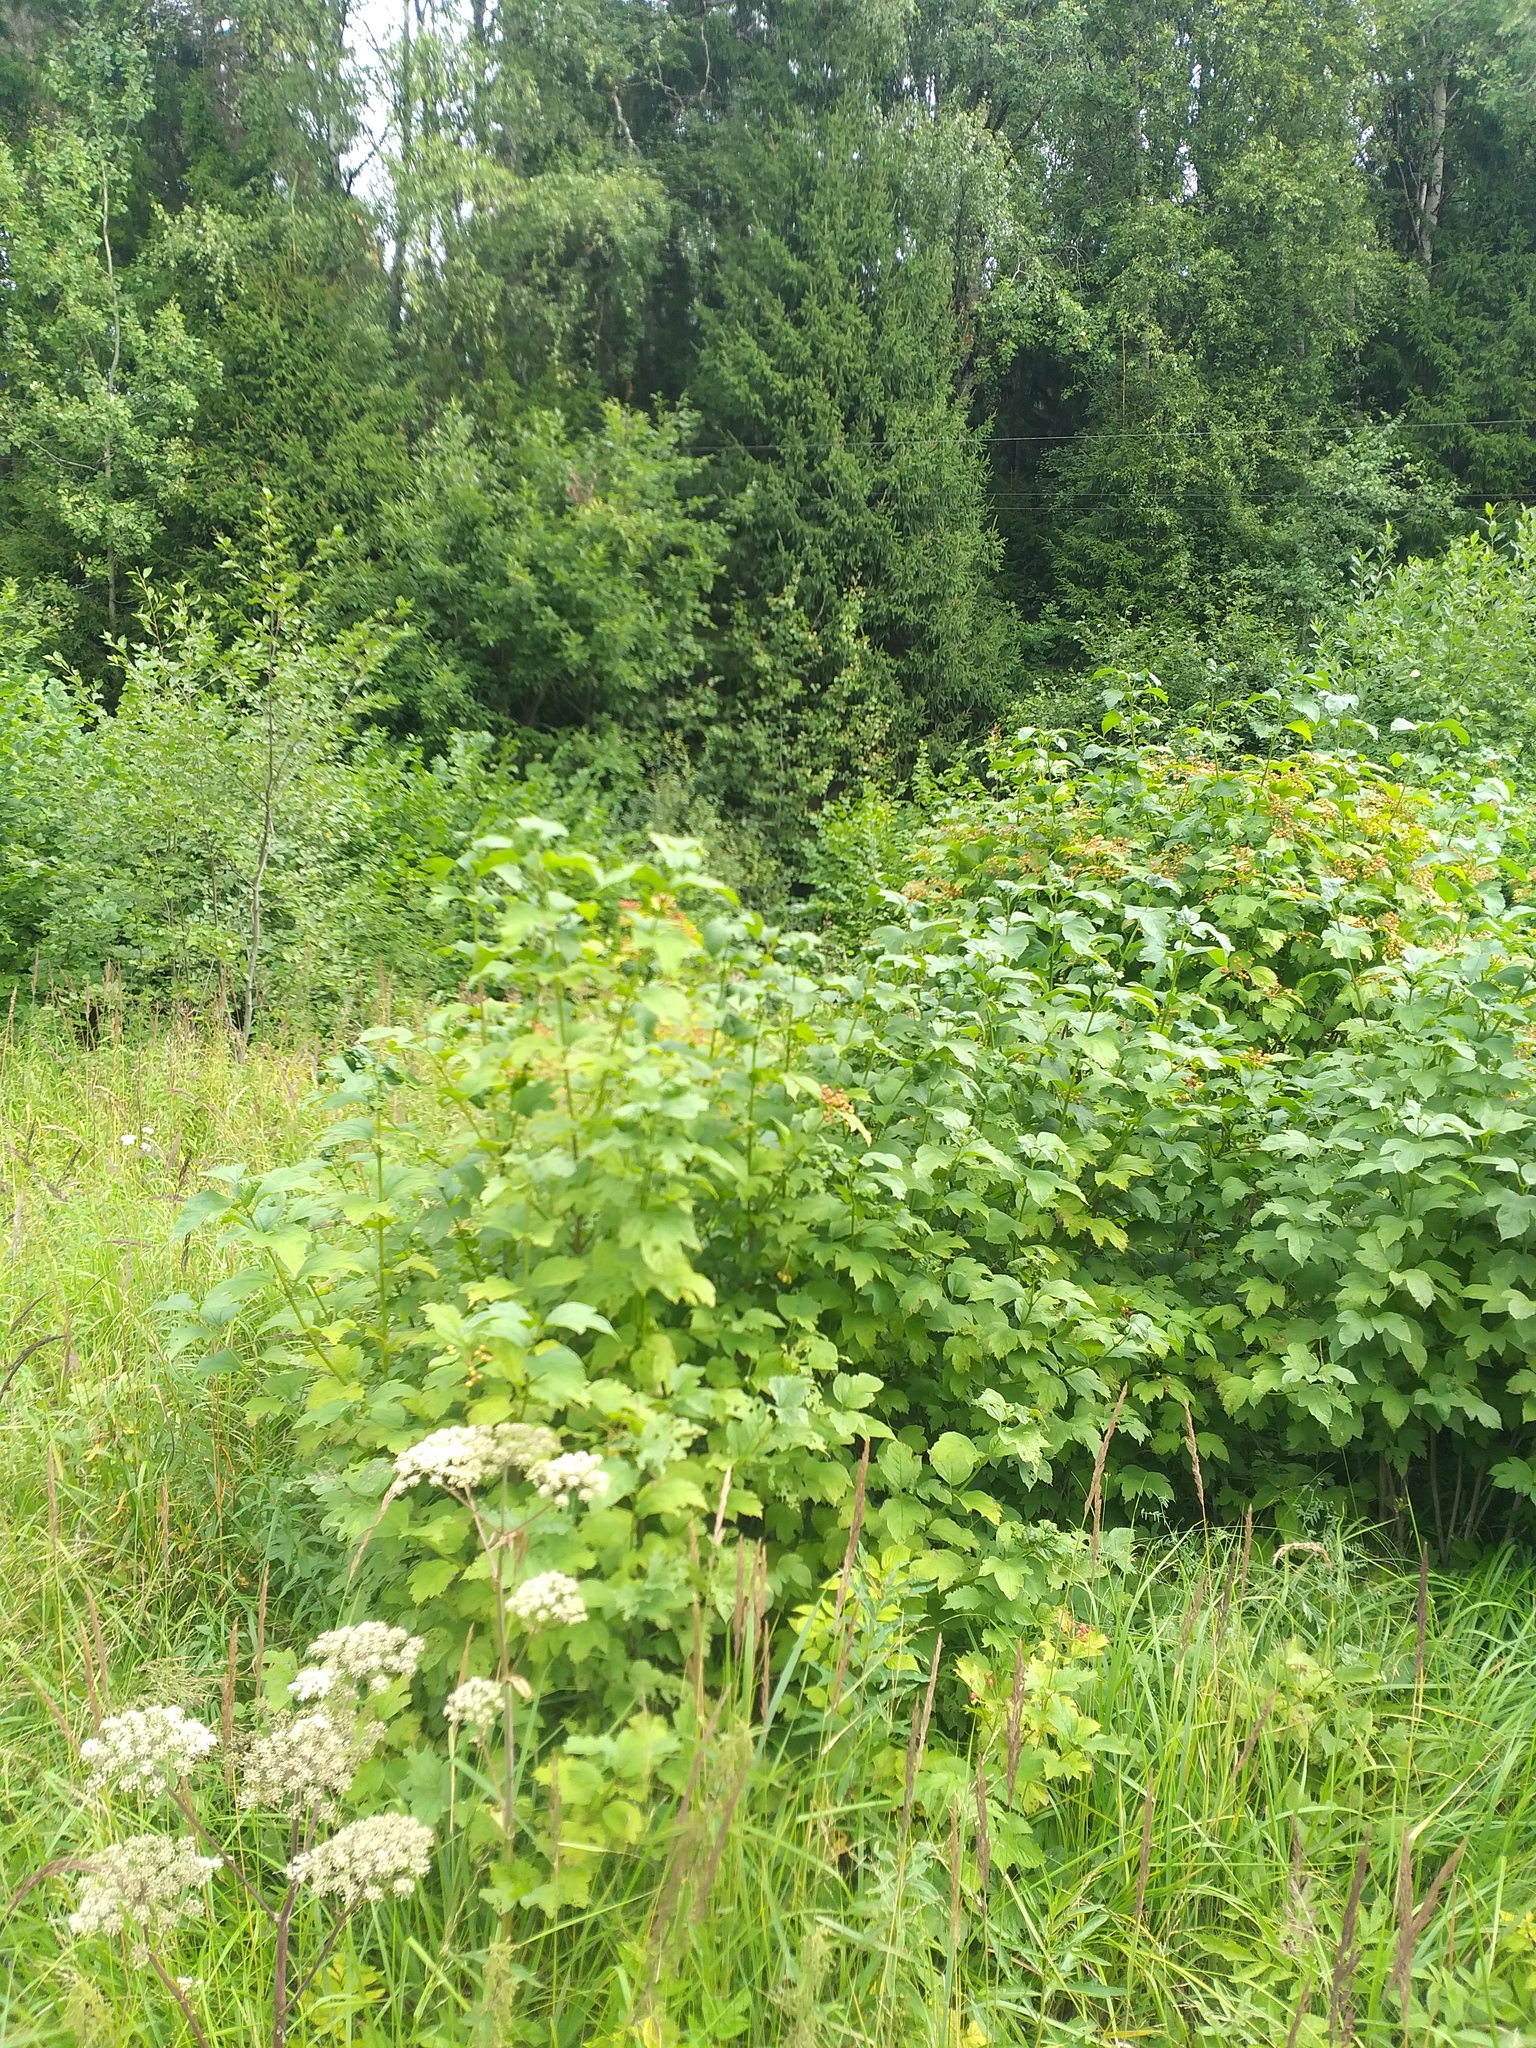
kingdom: Plantae
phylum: Tracheophyta
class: Magnoliopsida
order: Dipsacales
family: Viburnaceae
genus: Viburnum
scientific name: Viburnum opulus
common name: Guelder-rose
